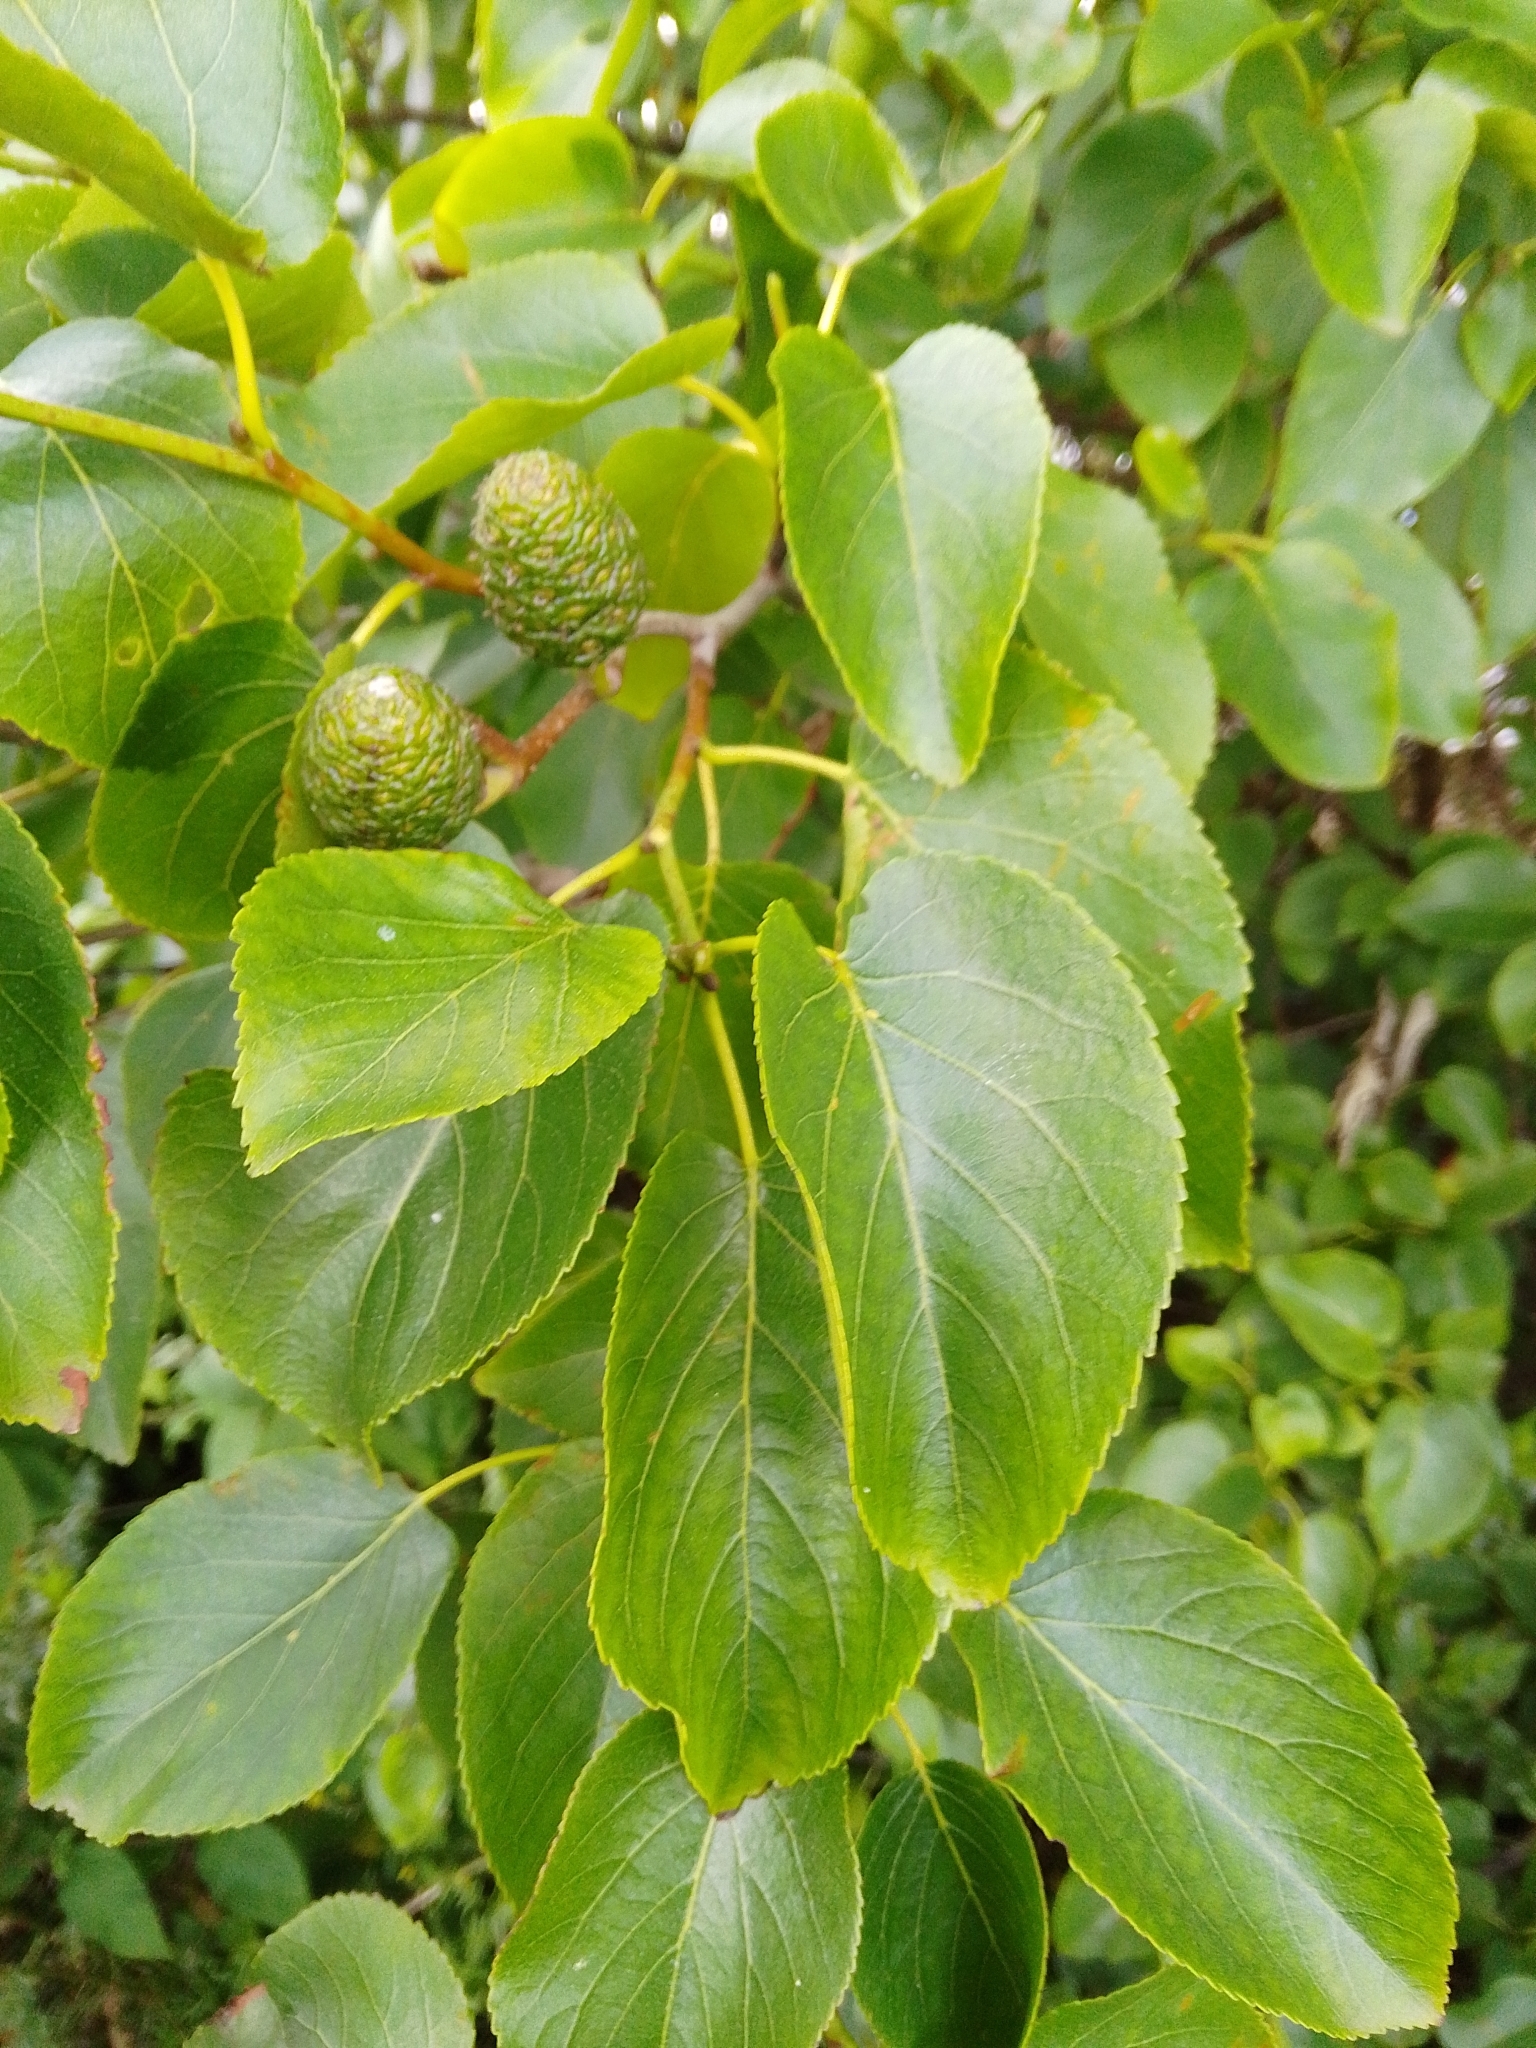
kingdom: Plantae
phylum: Tracheophyta
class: Magnoliopsida
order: Fagales
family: Betulaceae
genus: Alnus
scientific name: Alnus cordata
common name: Italian alder
